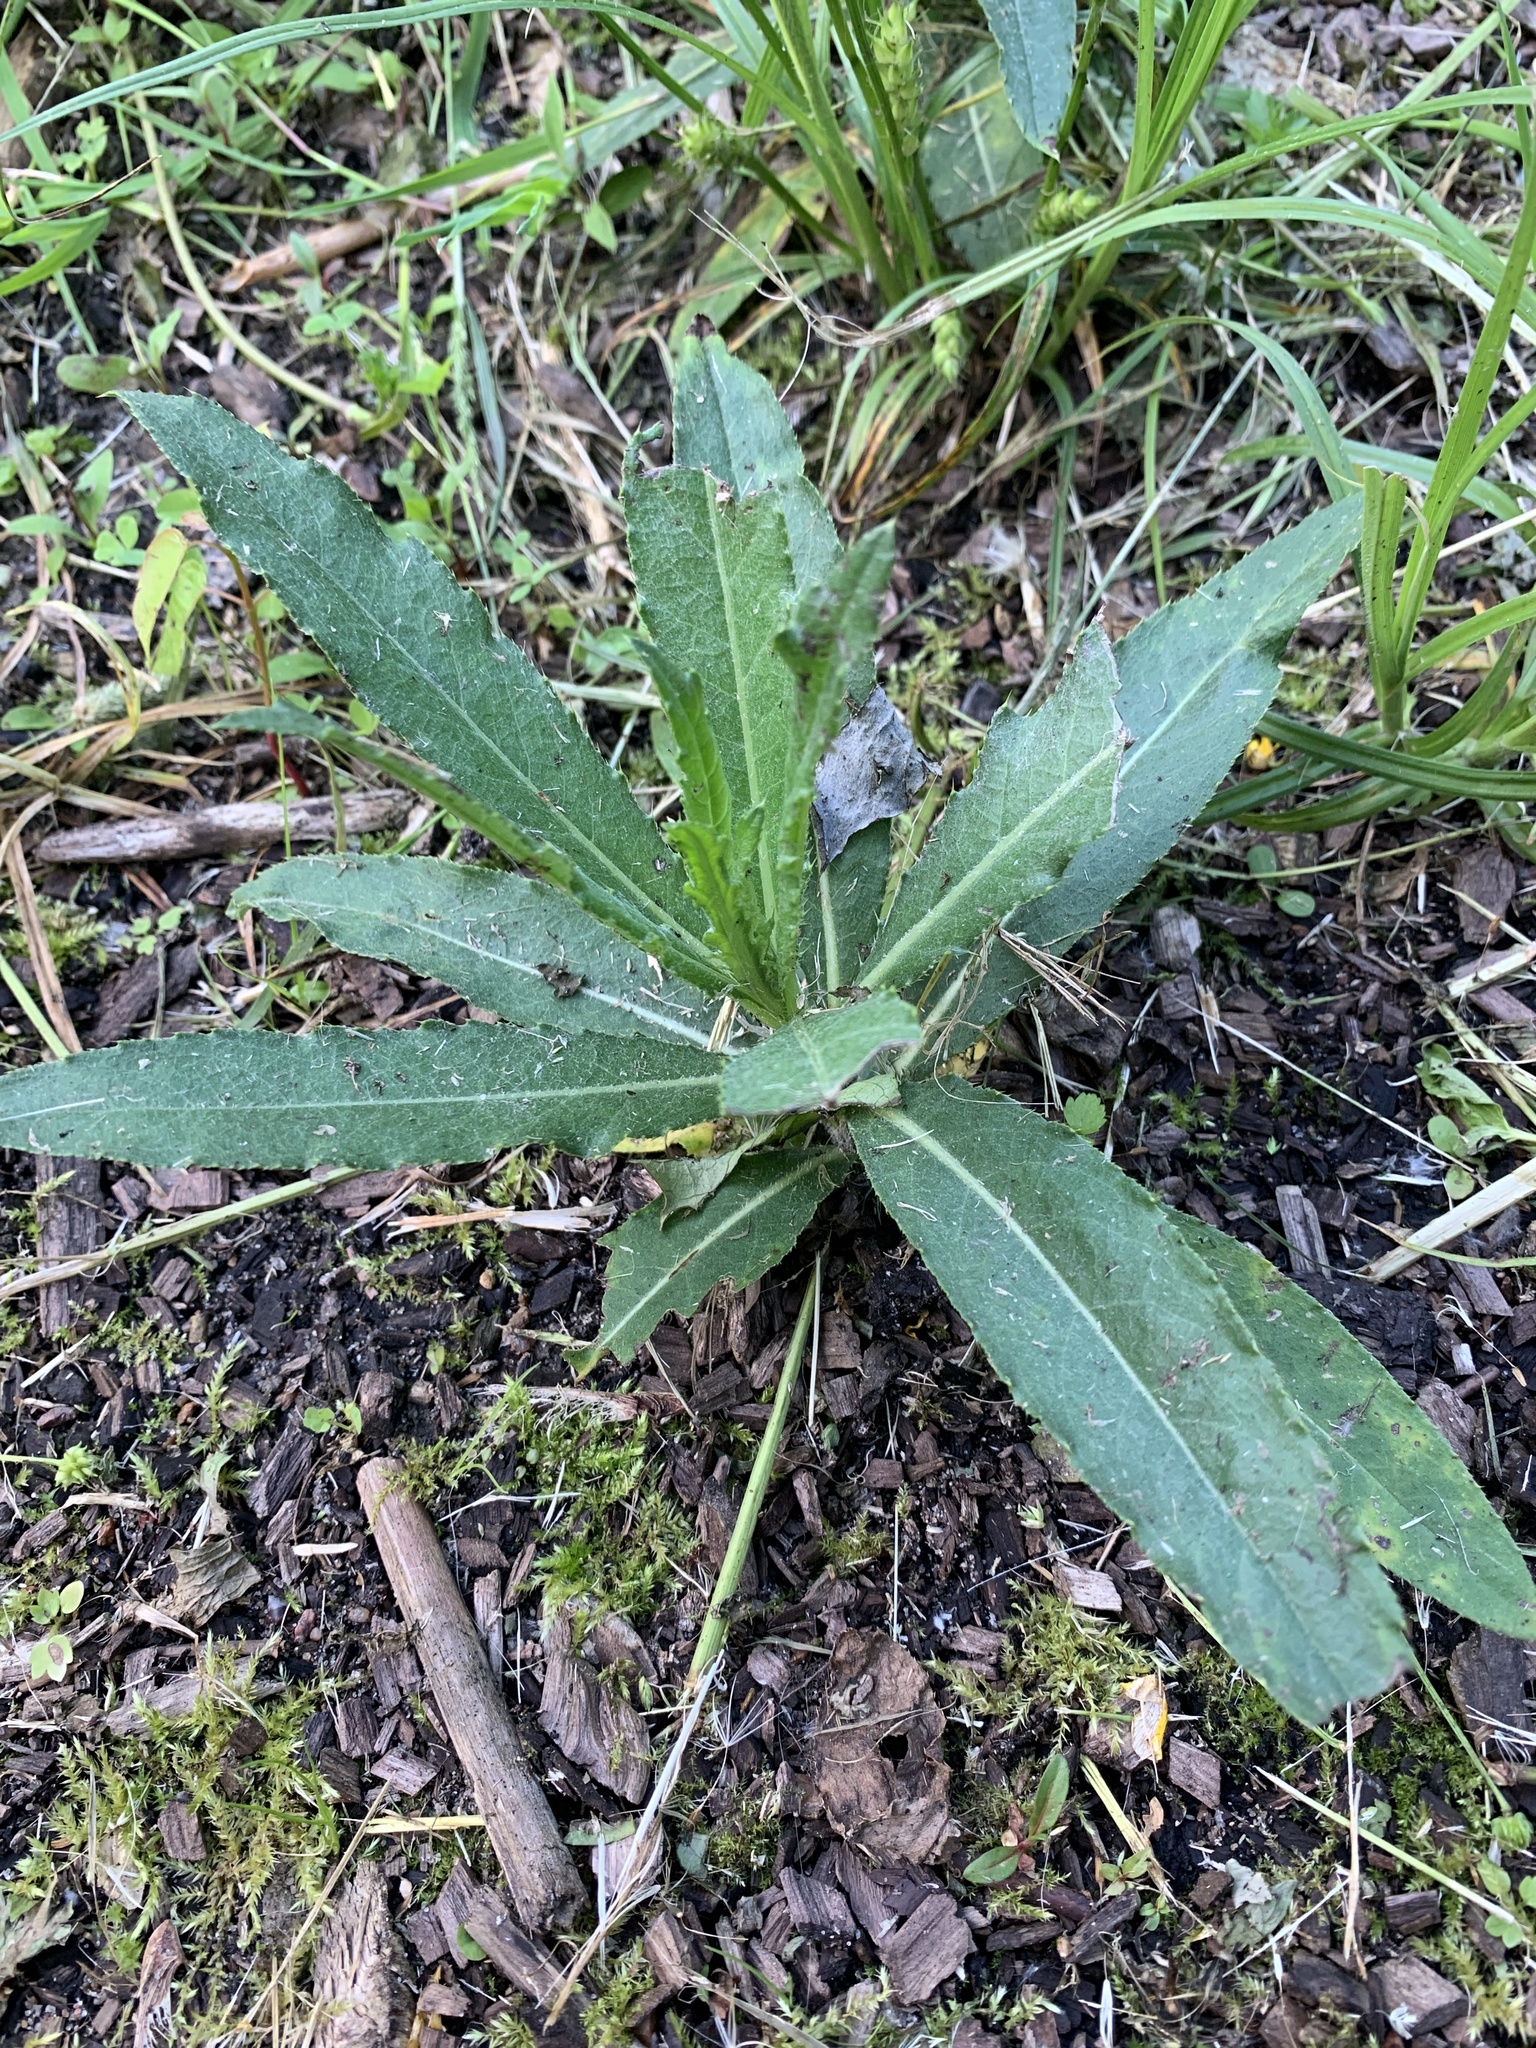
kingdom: Plantae
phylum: Tracheophyta
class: Magnoliopsida
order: Asterales
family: Asteraceae
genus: Cirsium
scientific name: Cirsium arvense
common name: Creeping thistle
